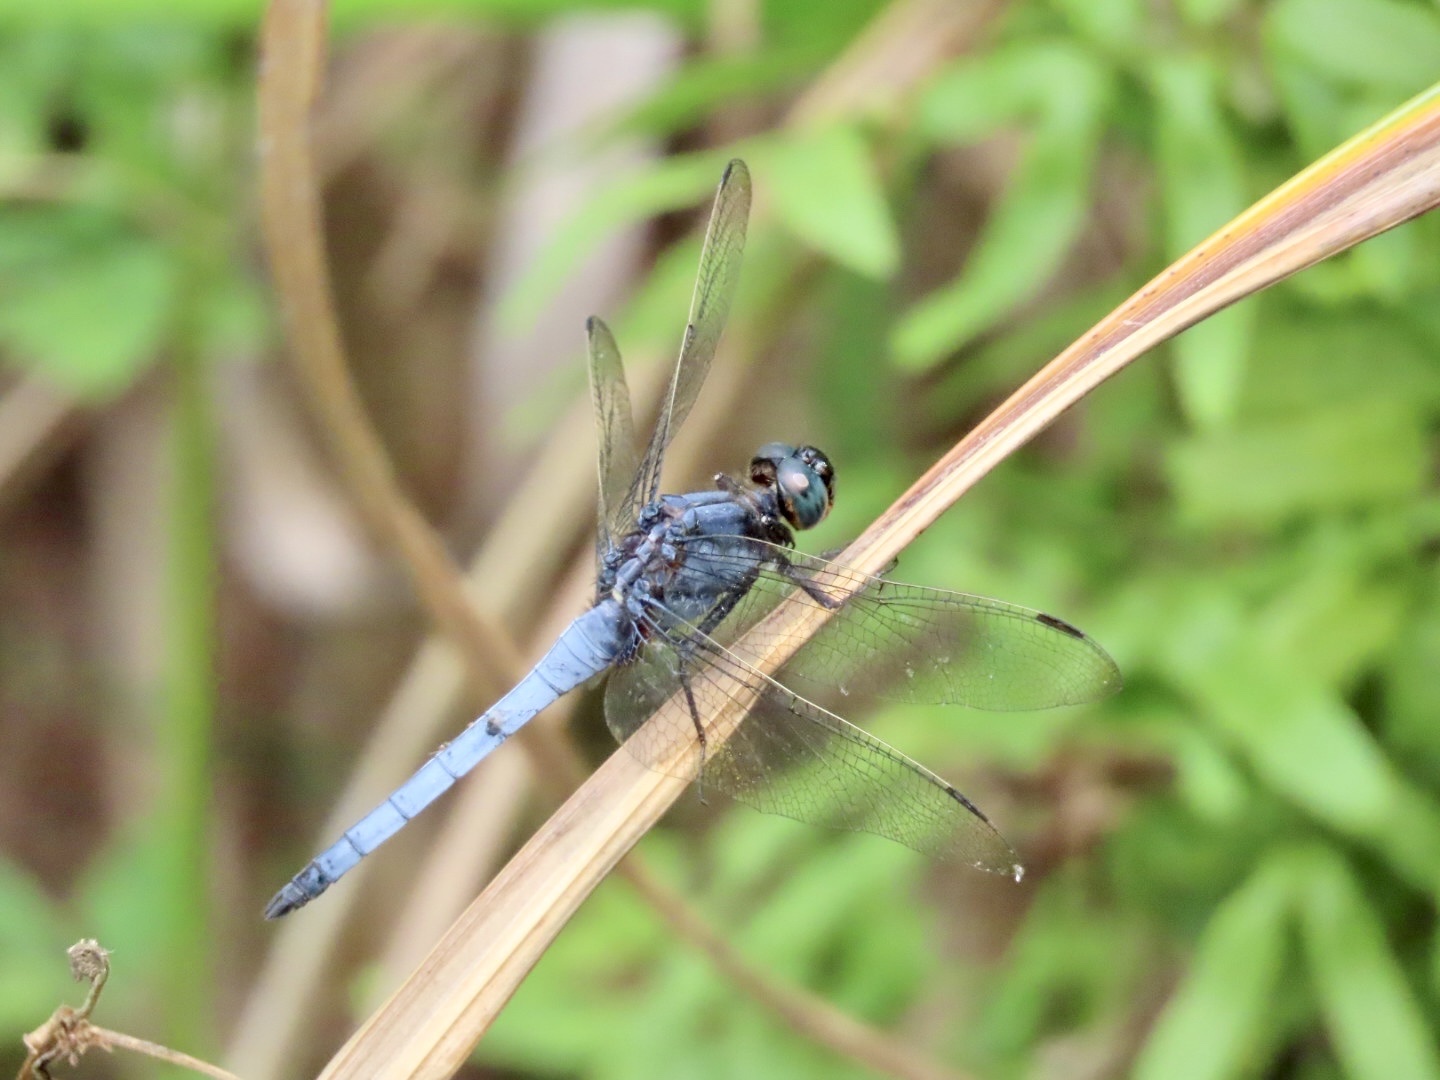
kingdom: Animalia
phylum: Arthropoda
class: Insecta
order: Odonata
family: Libellulidae
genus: Orthetrum
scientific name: Orthetrum glaucum
